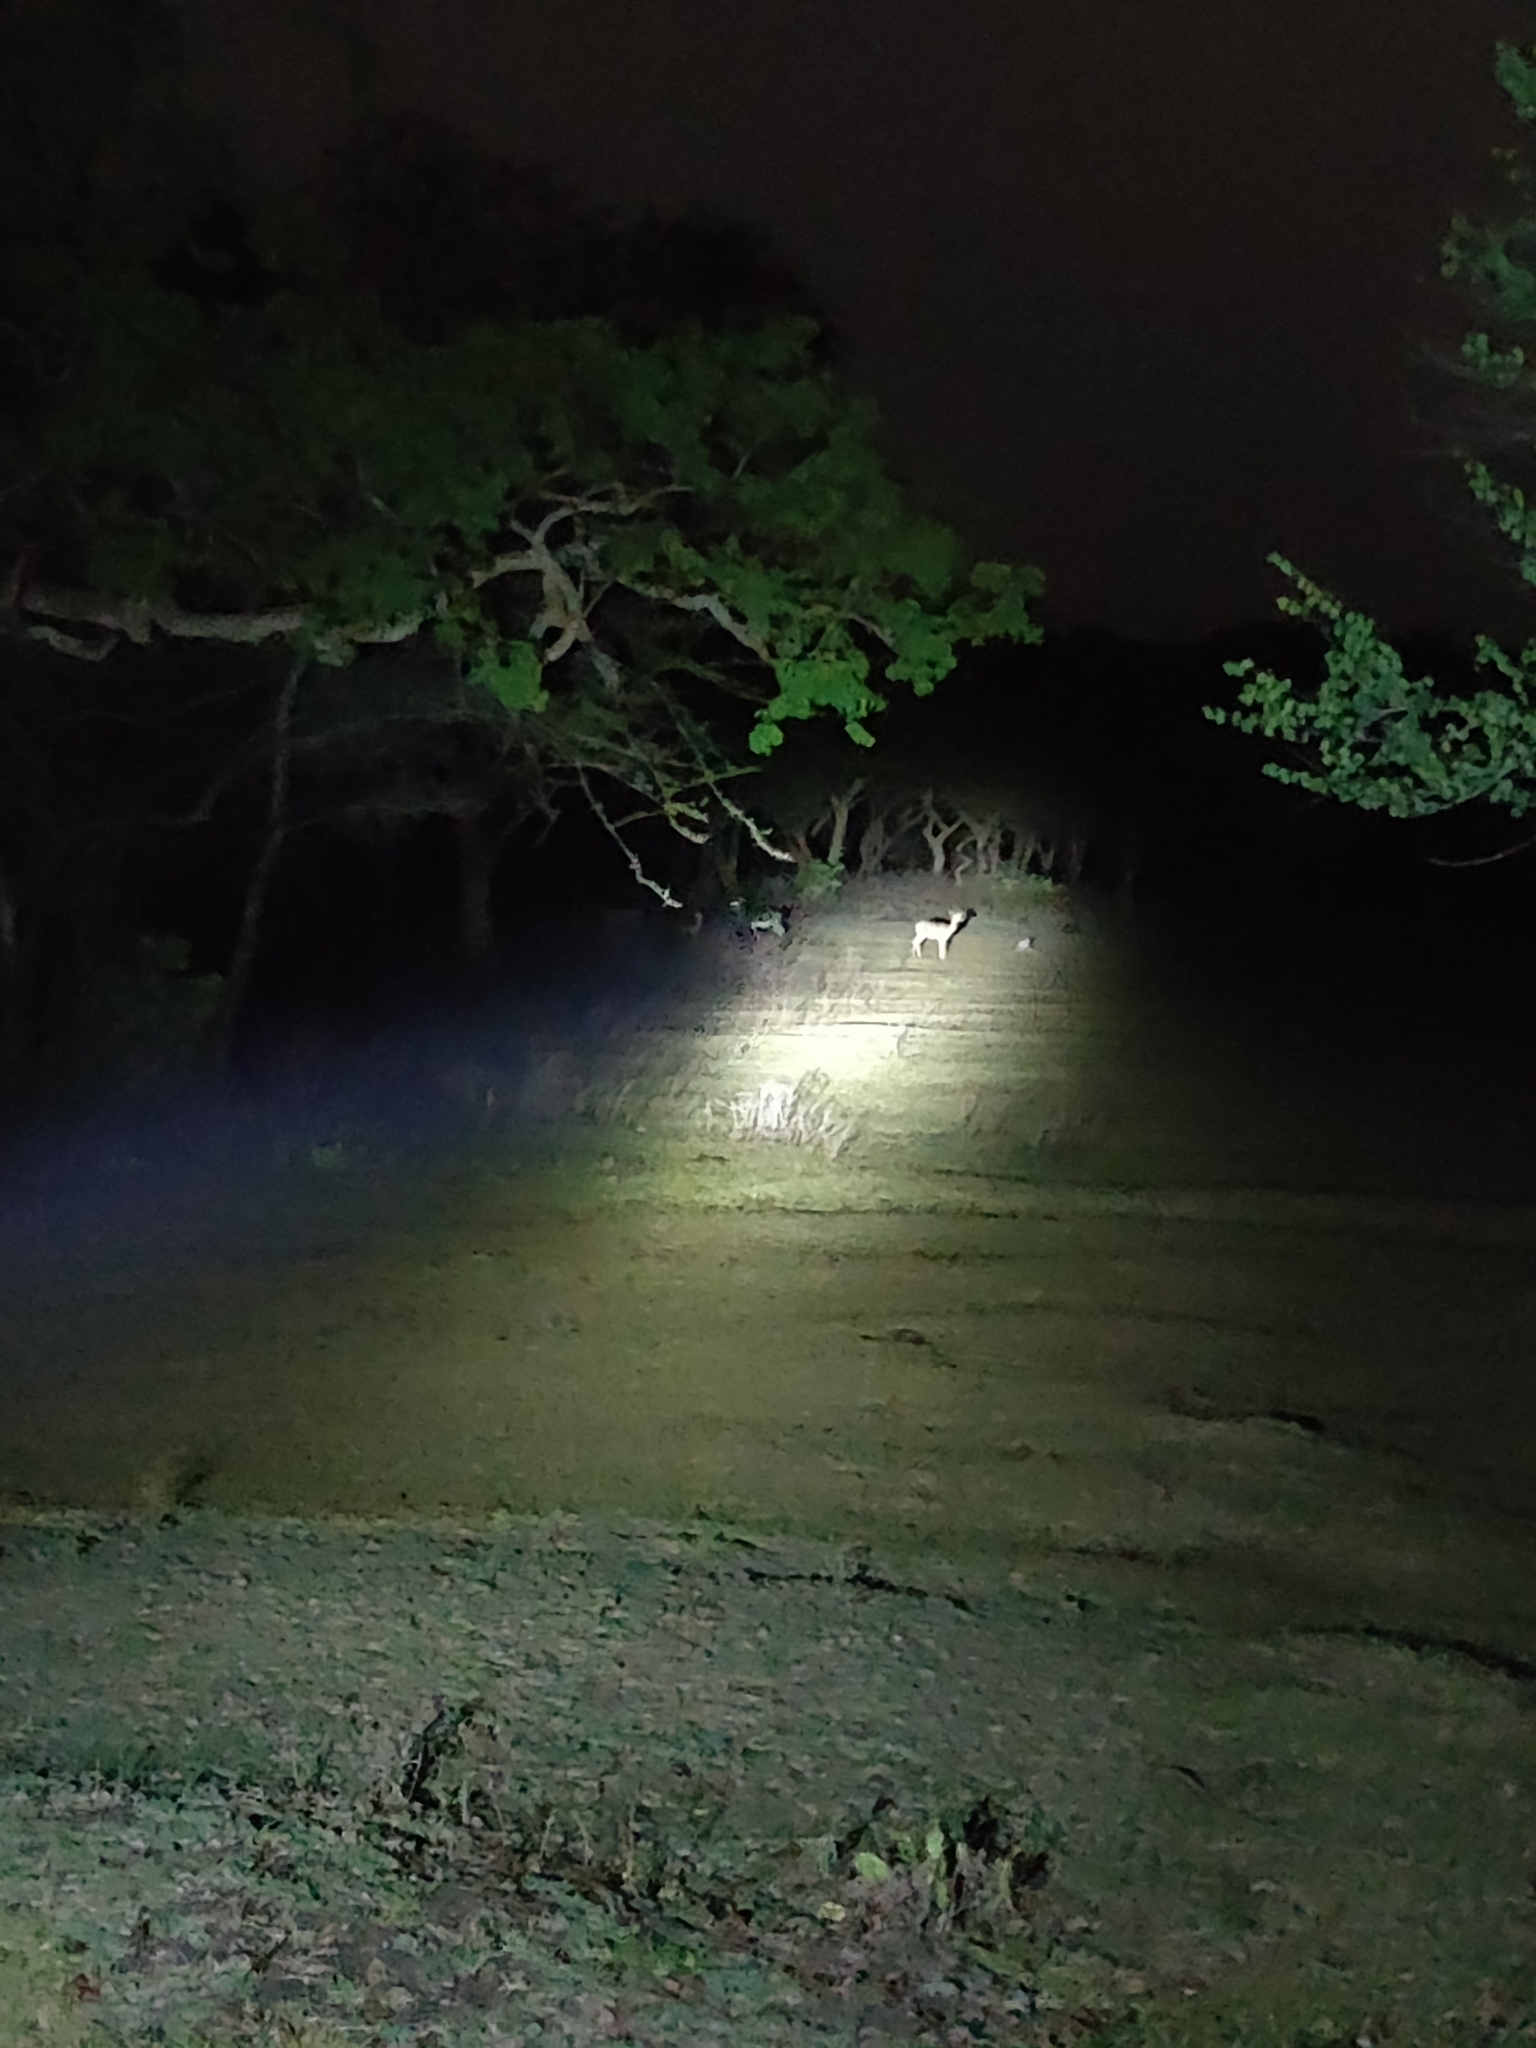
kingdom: Animalia
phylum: Chordata
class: Mammalia
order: Artiodactyla
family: Bovidae
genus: Antilope
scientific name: Antilope cervicapra
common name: Blackbuck
